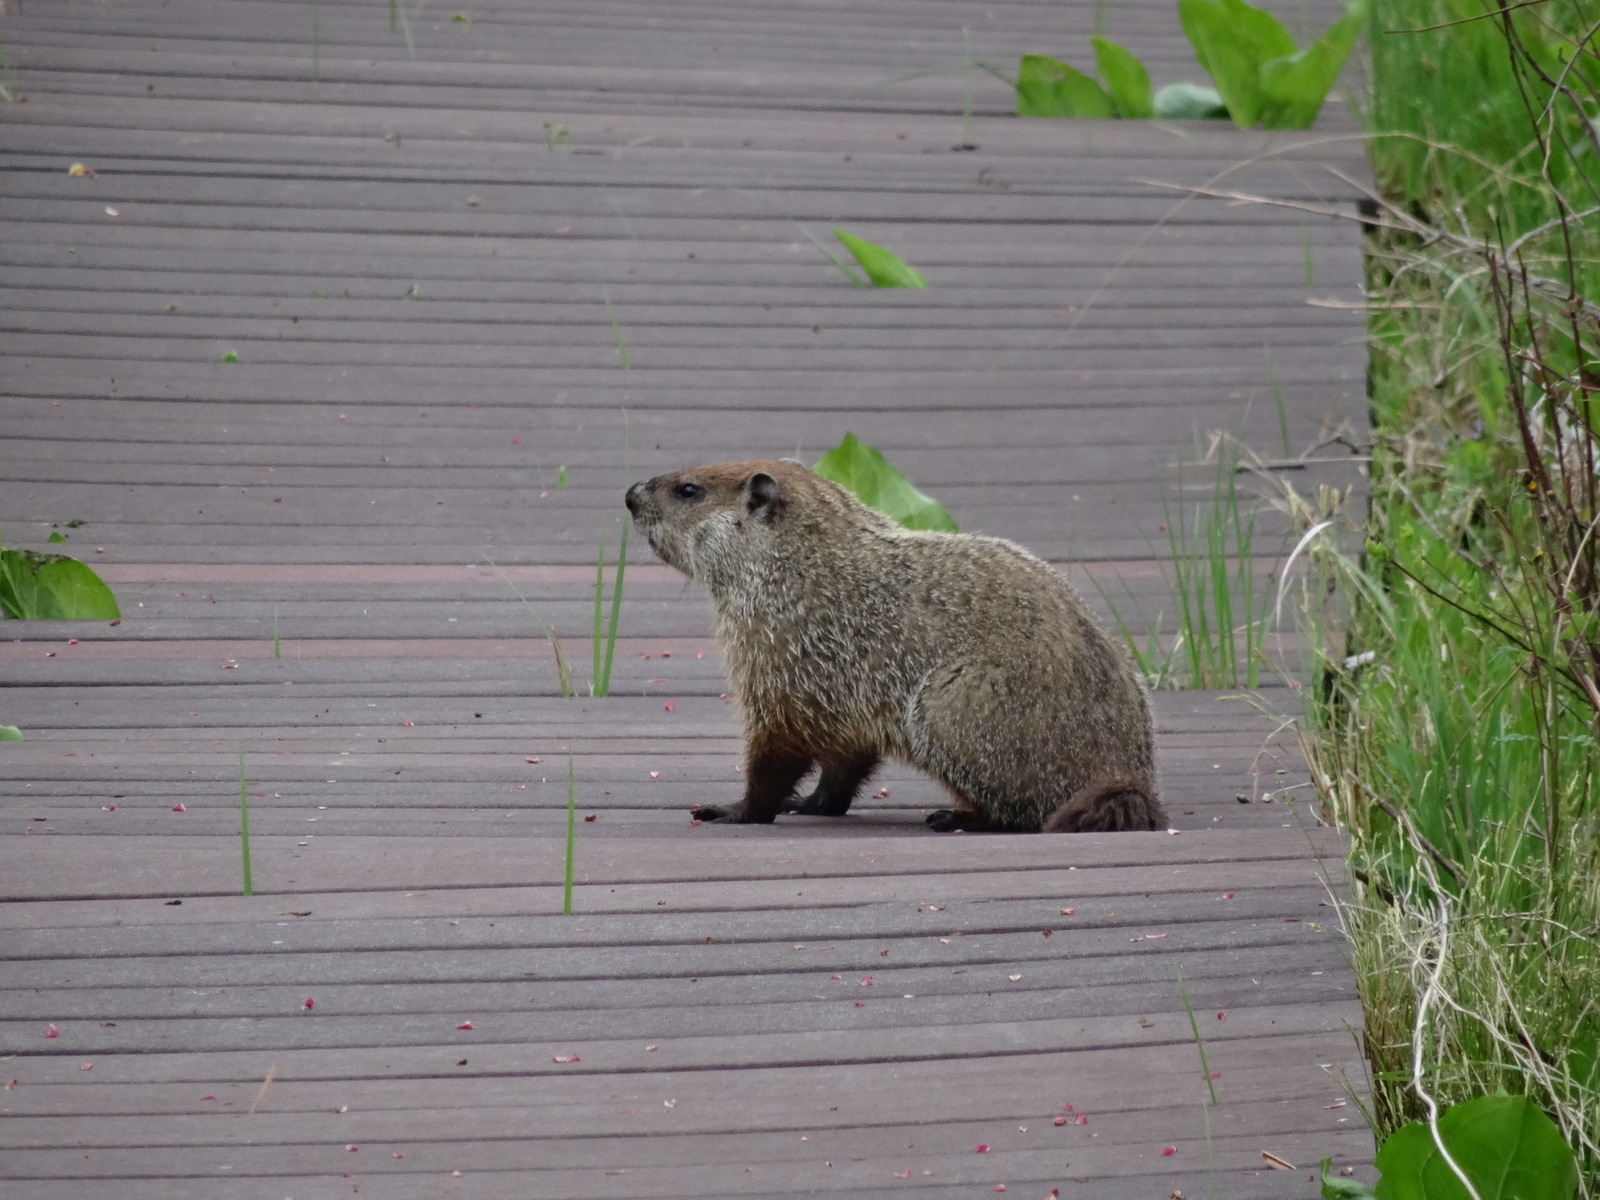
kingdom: Animalia
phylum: Chordata
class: Mammalia
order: Rodentia
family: Sciuridae
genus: Marmota
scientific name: Marmota monax
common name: Groundhog
